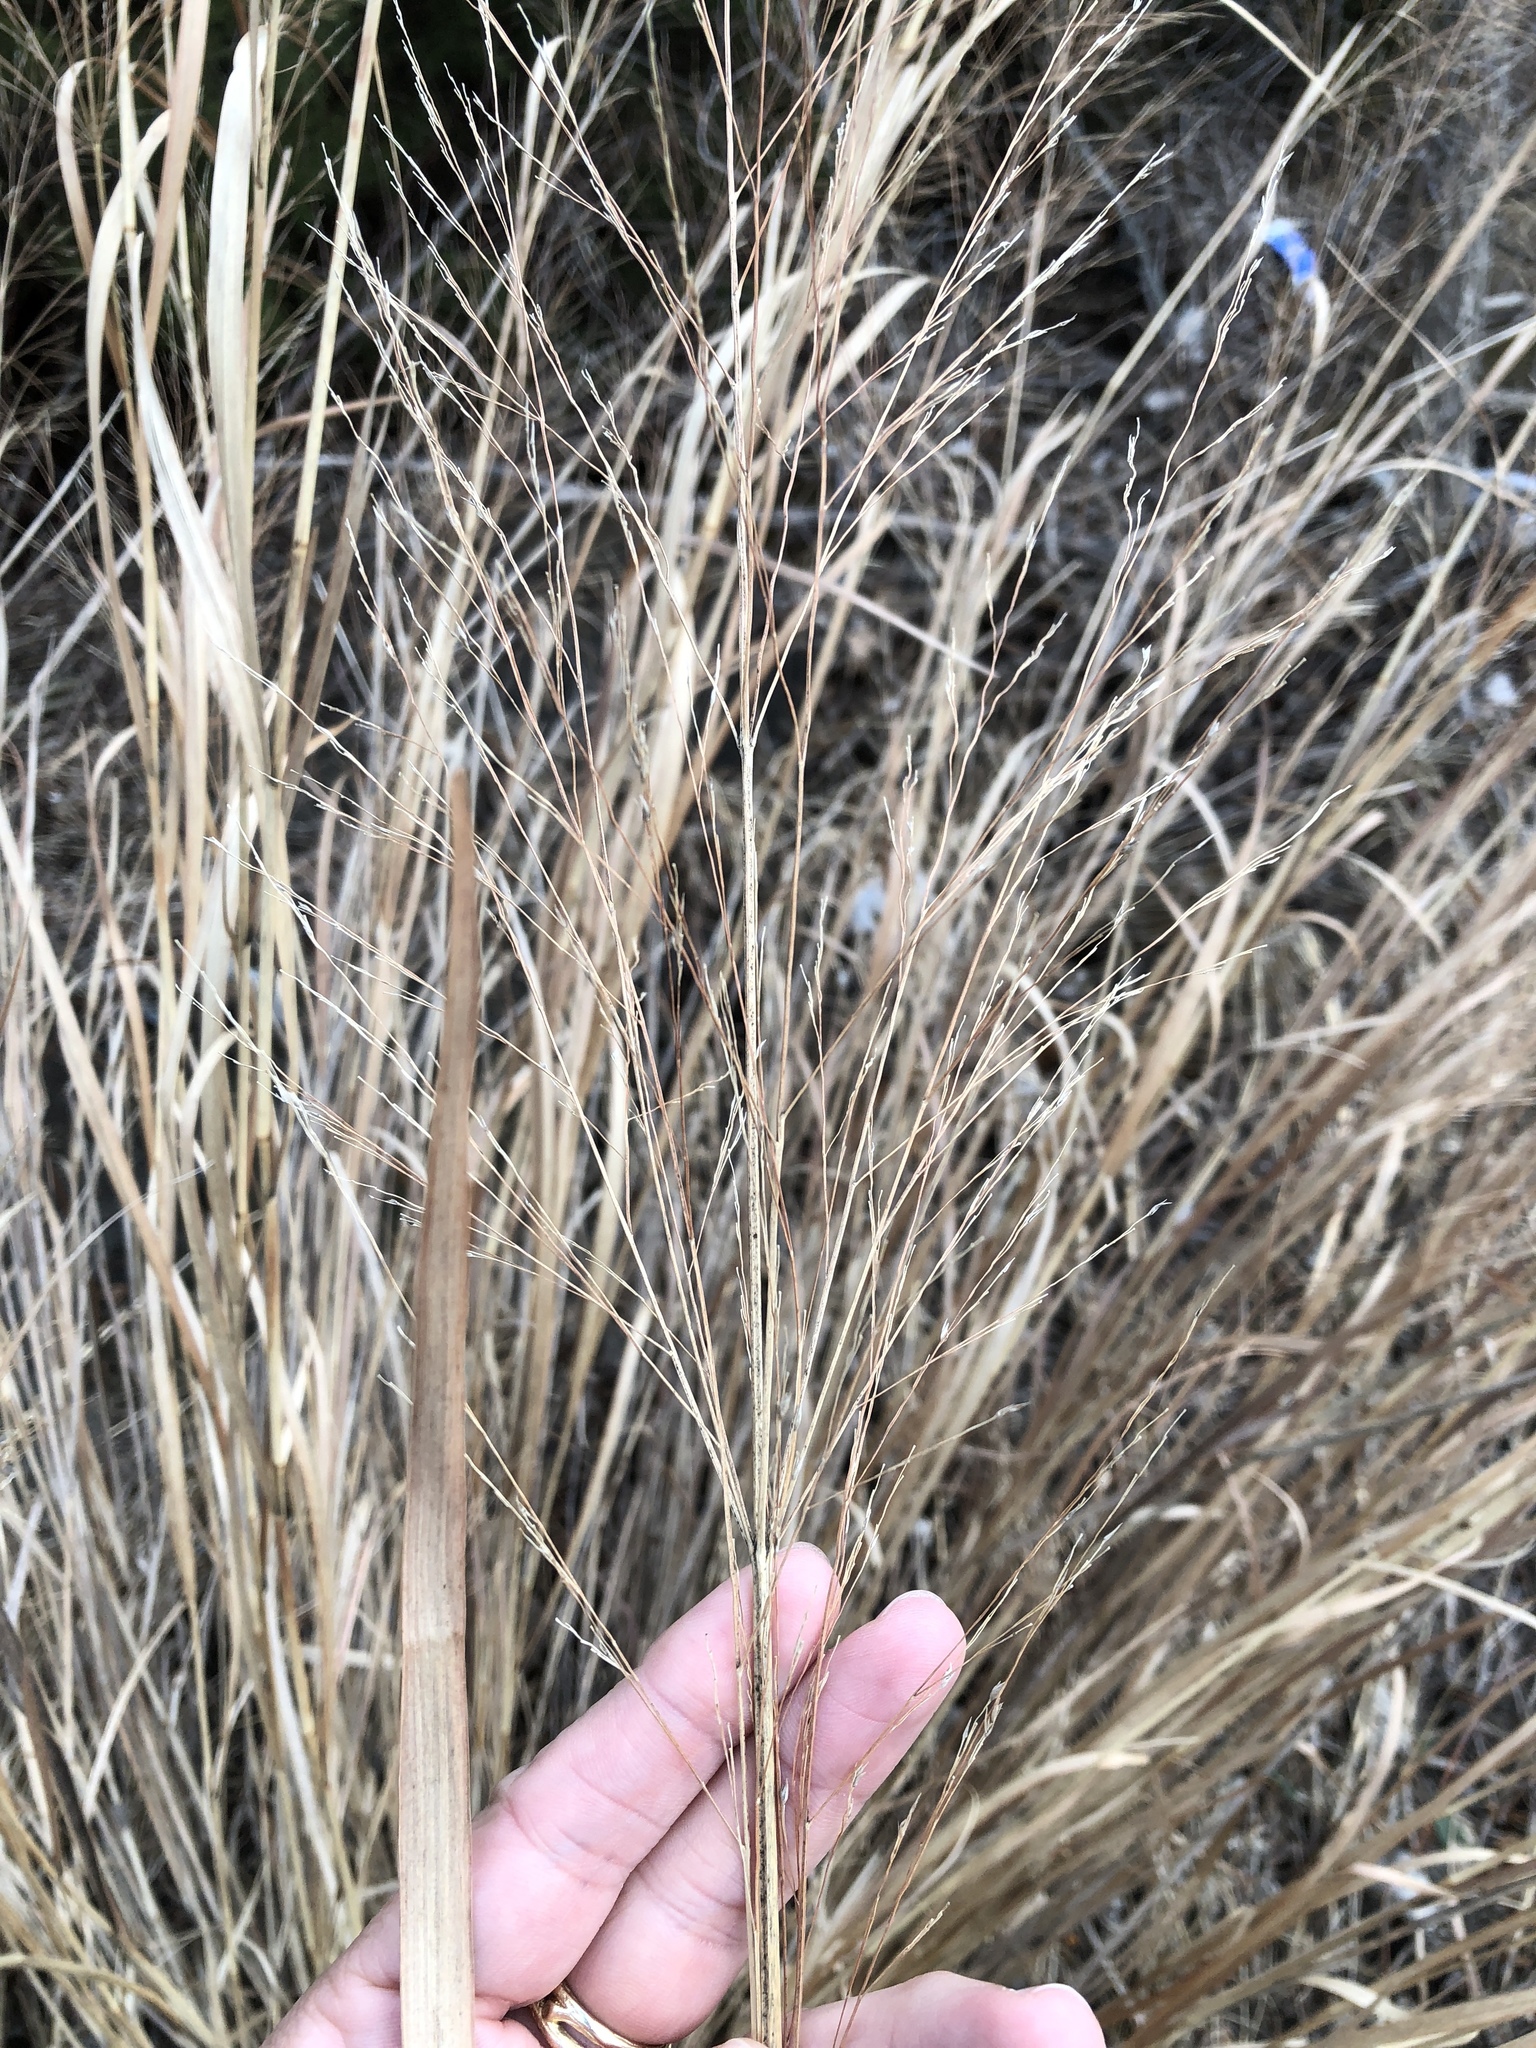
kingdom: Plantae
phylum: Tracheophyta
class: Liliopsida
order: Poales
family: Poaceae
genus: Panicum
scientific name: Panicum virgatum
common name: Switchgrass
